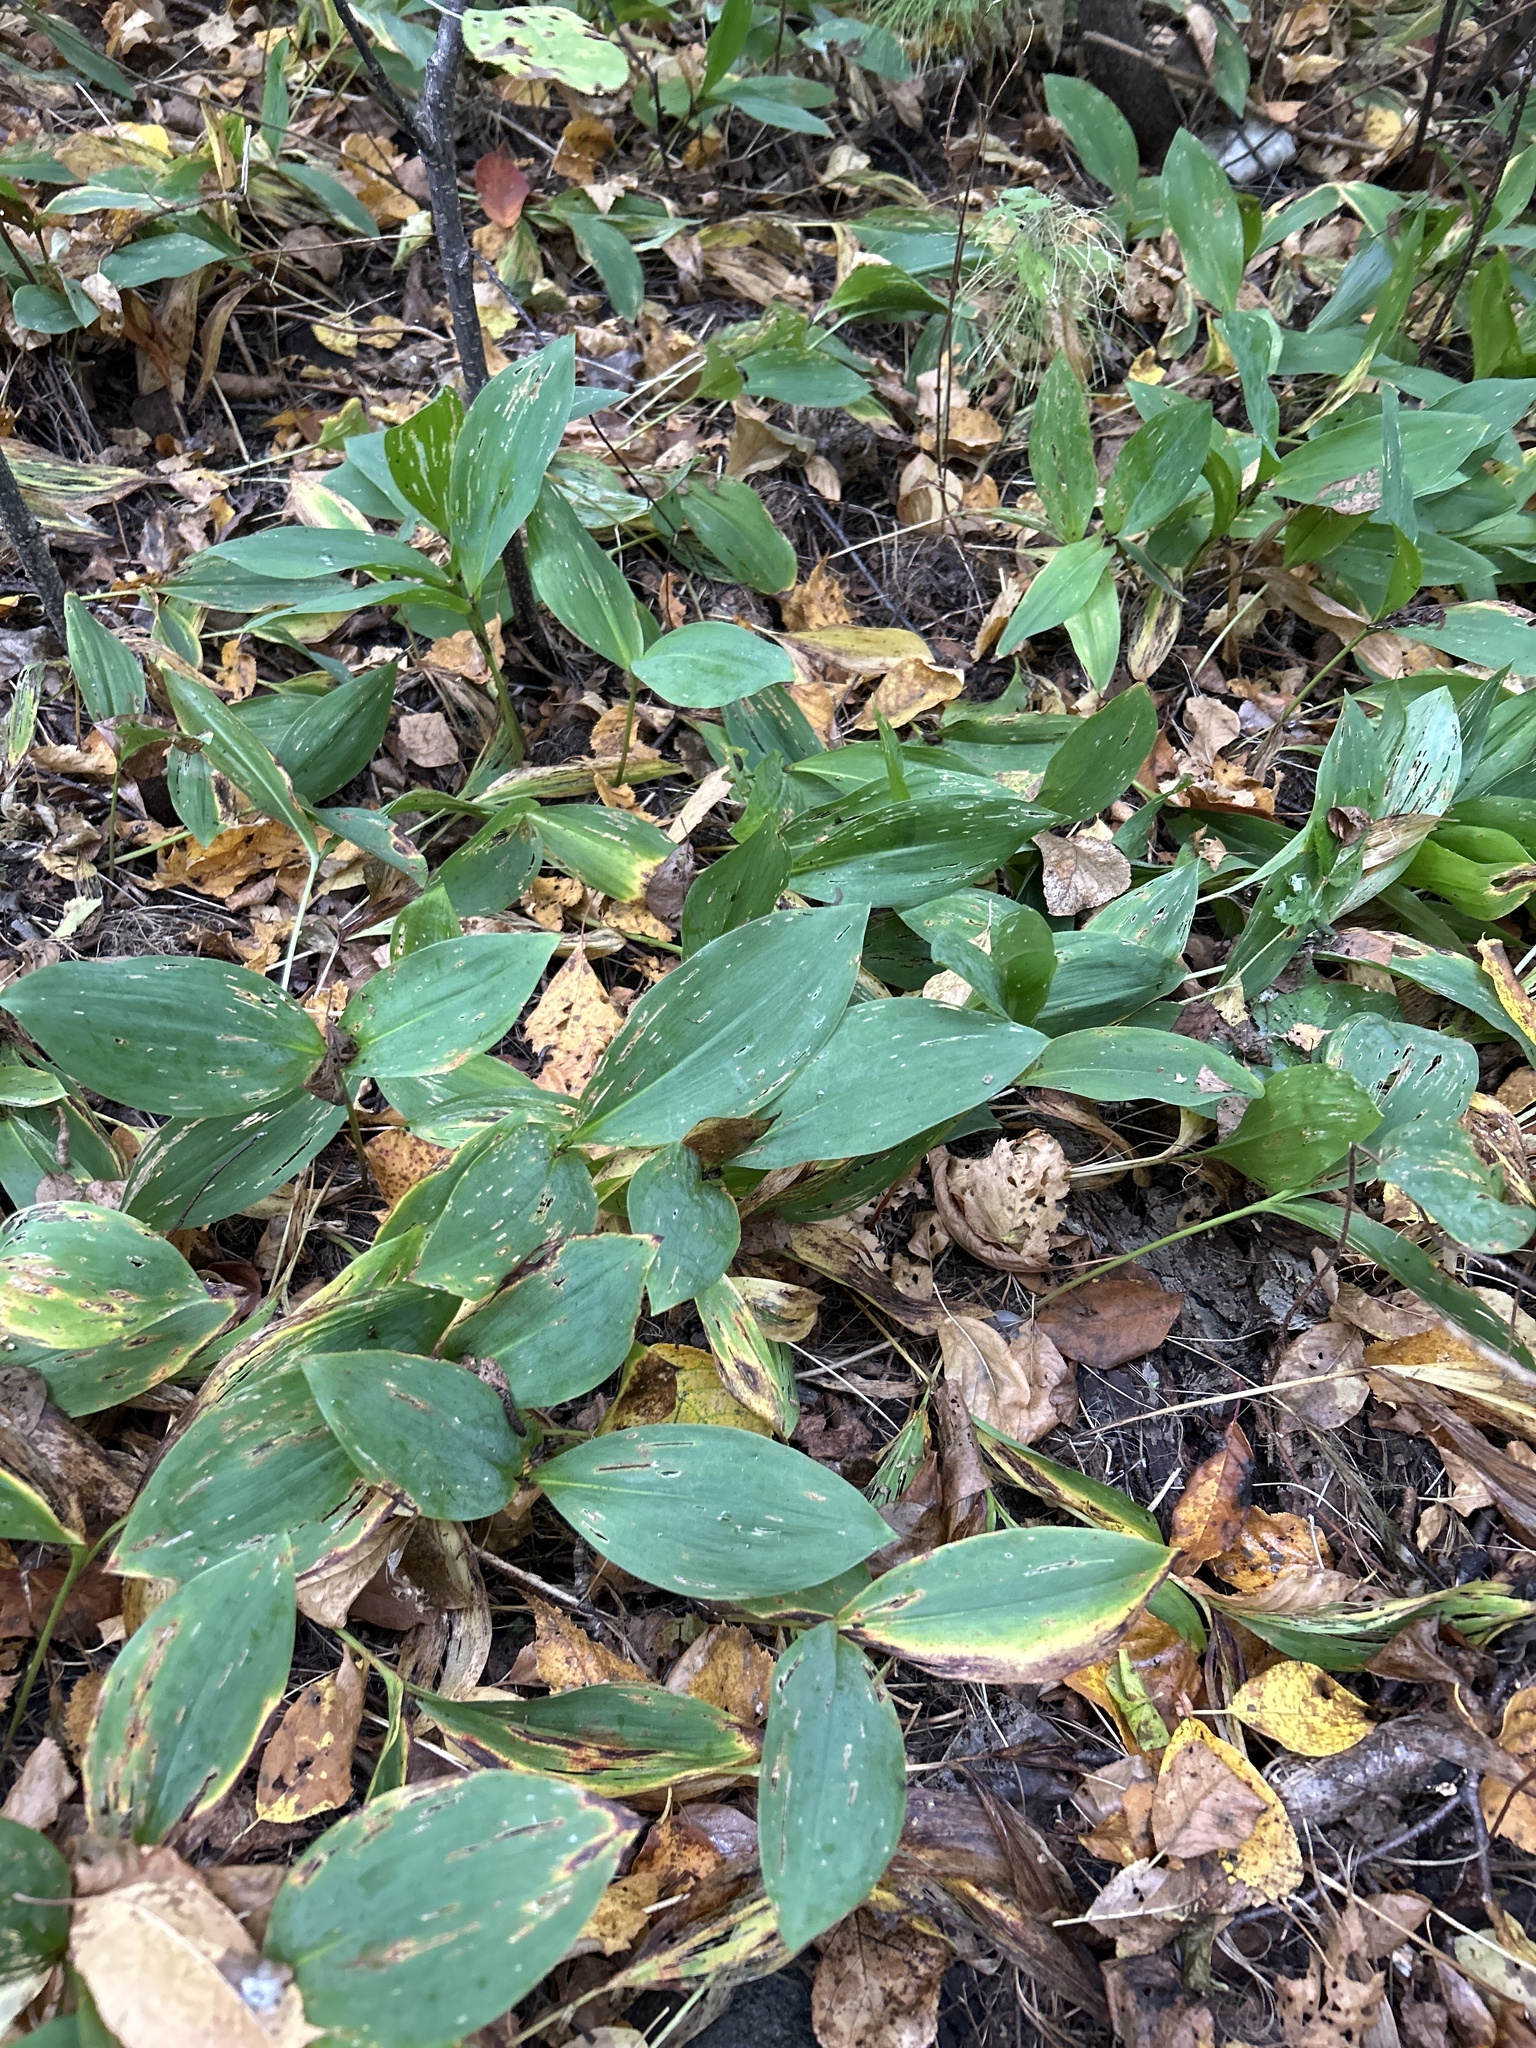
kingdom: Plantae
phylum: Tracheophyta
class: Liliopsida
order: Asparagales
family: Asparagaceae
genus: Convallaria
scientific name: Convallaria majalis
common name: Lily-of-the-valley
